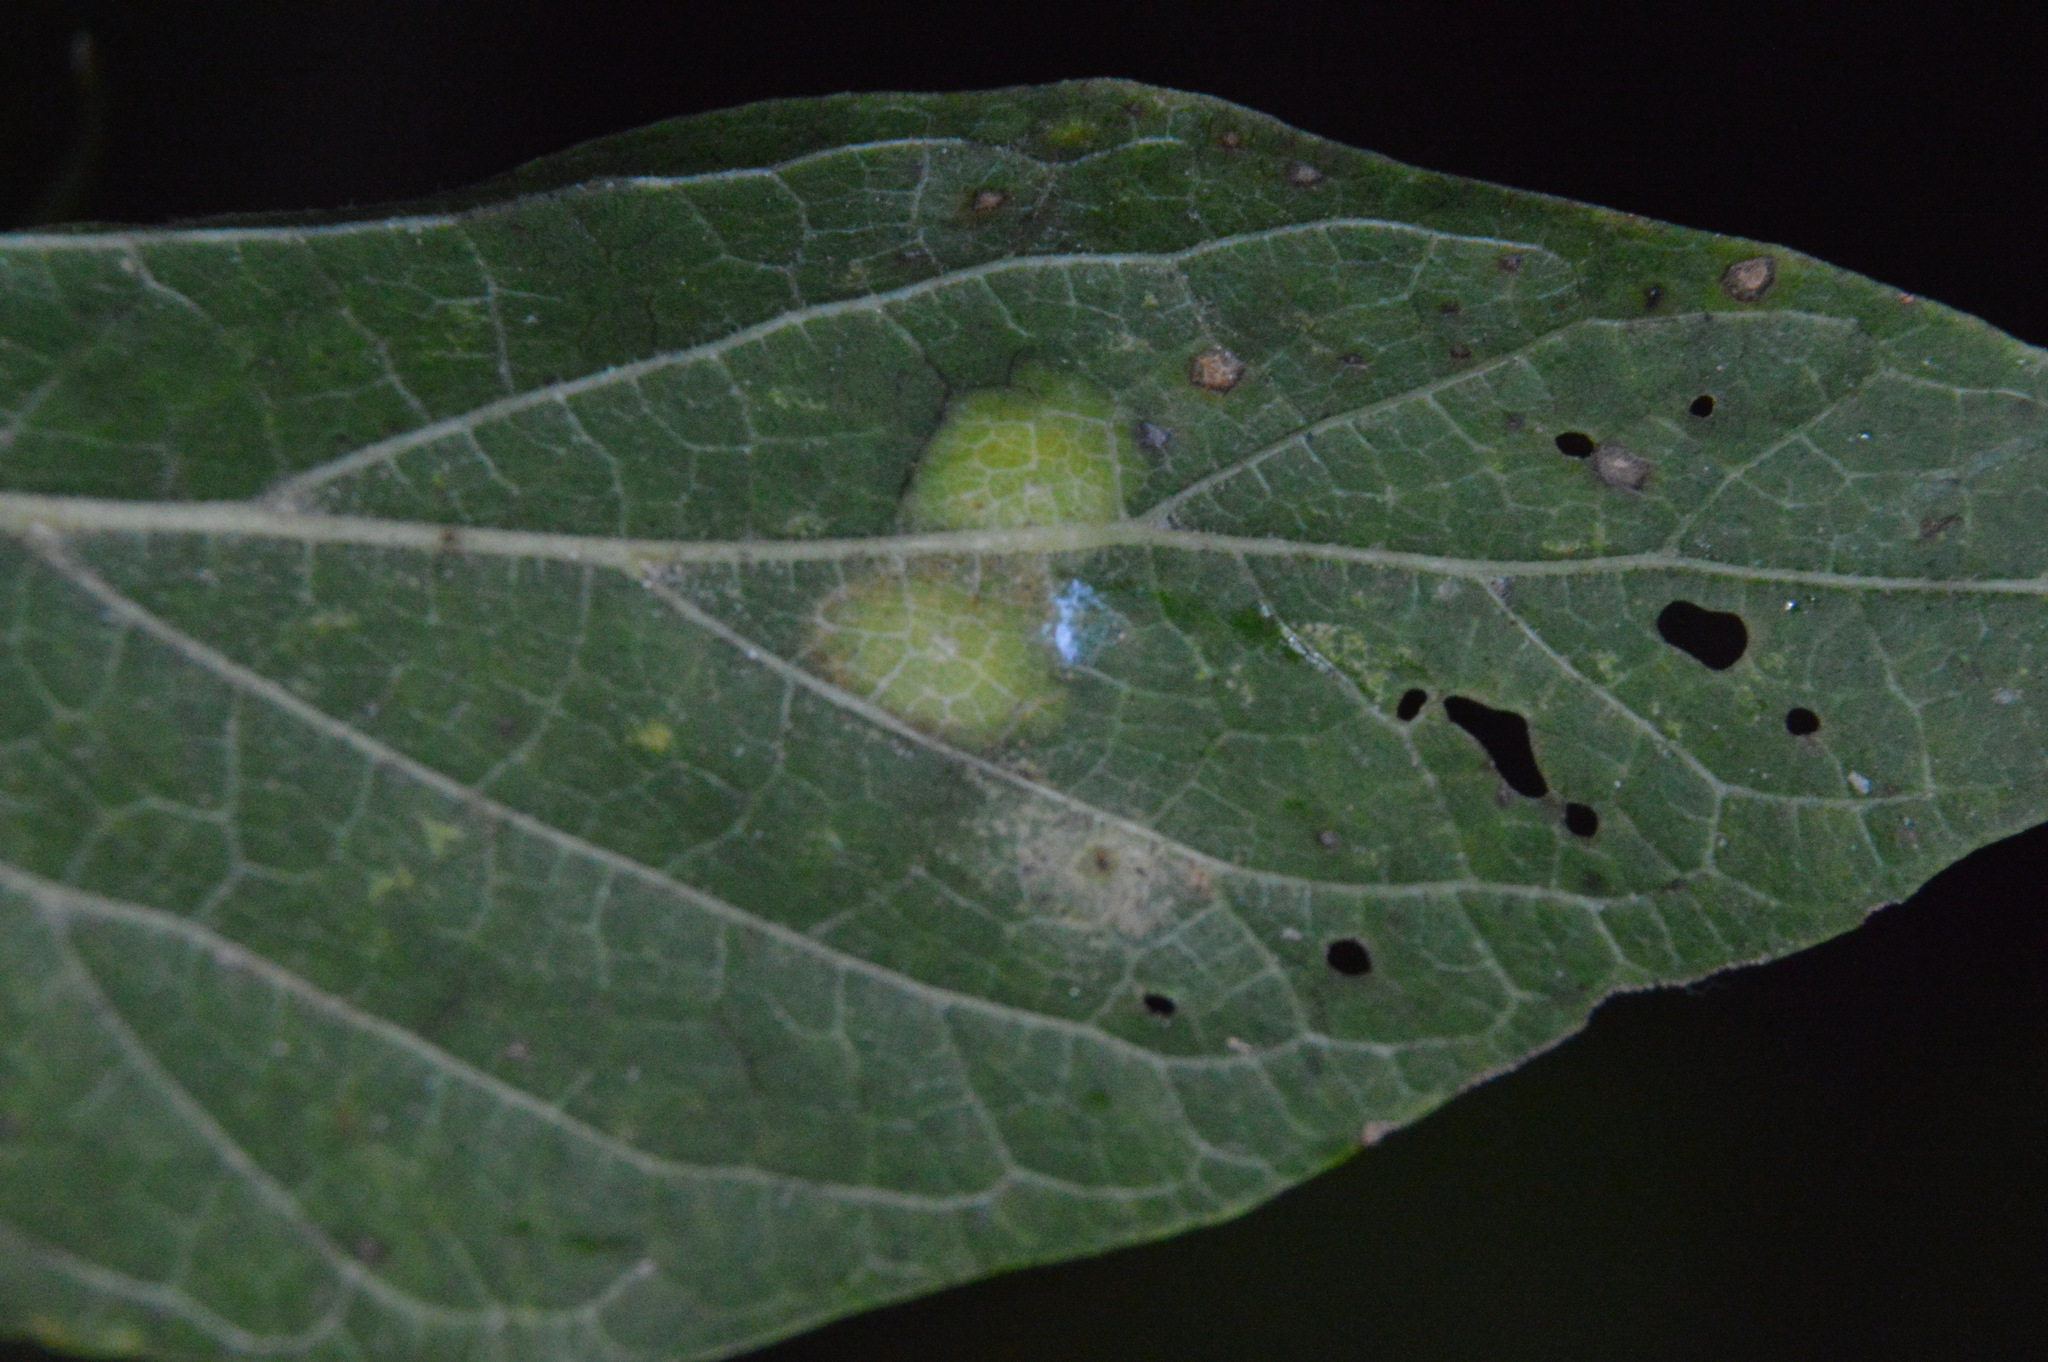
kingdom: Animalia
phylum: Arthropoda
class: Insecta
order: Hemiptera
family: Aphalaridae
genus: Pachypsylla
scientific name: Pachypsylla celtidisvesicula
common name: Hackberry blister gall psyllid
